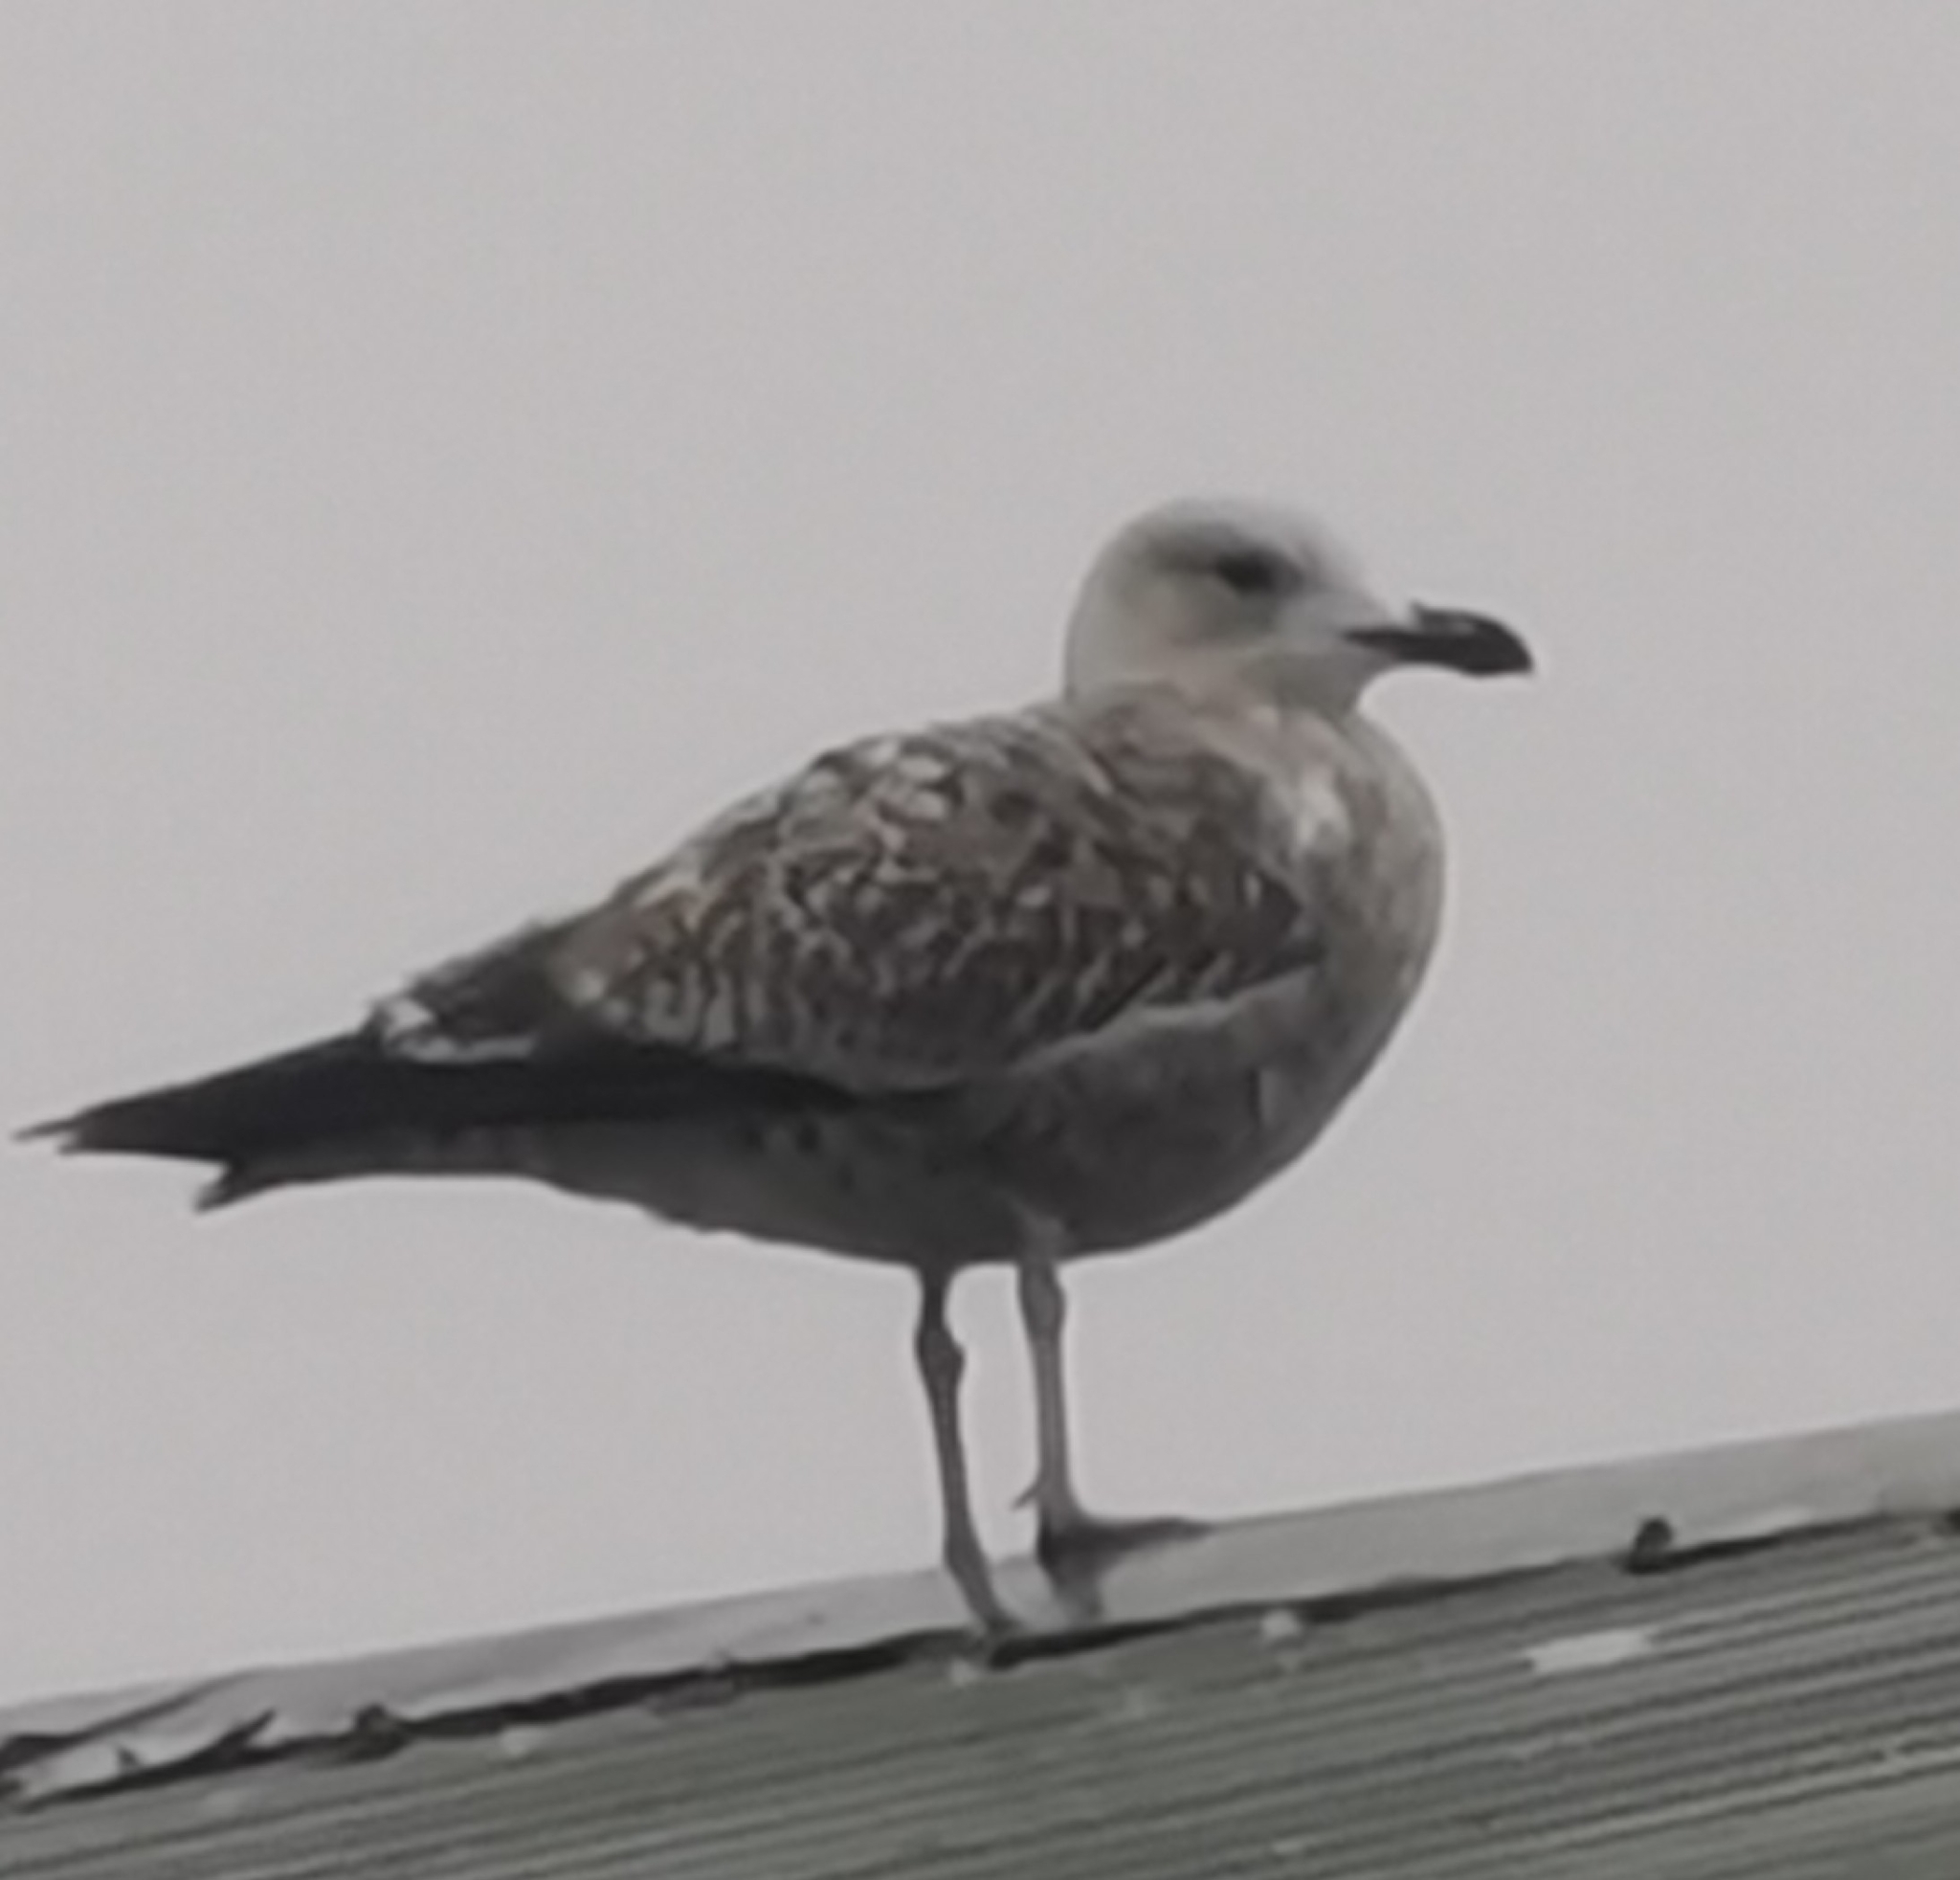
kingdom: Animalia
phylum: Chordata
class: Aves
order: Charadriiformes
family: Laridae
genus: Larus
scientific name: Larus argentatus
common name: Herring gull
